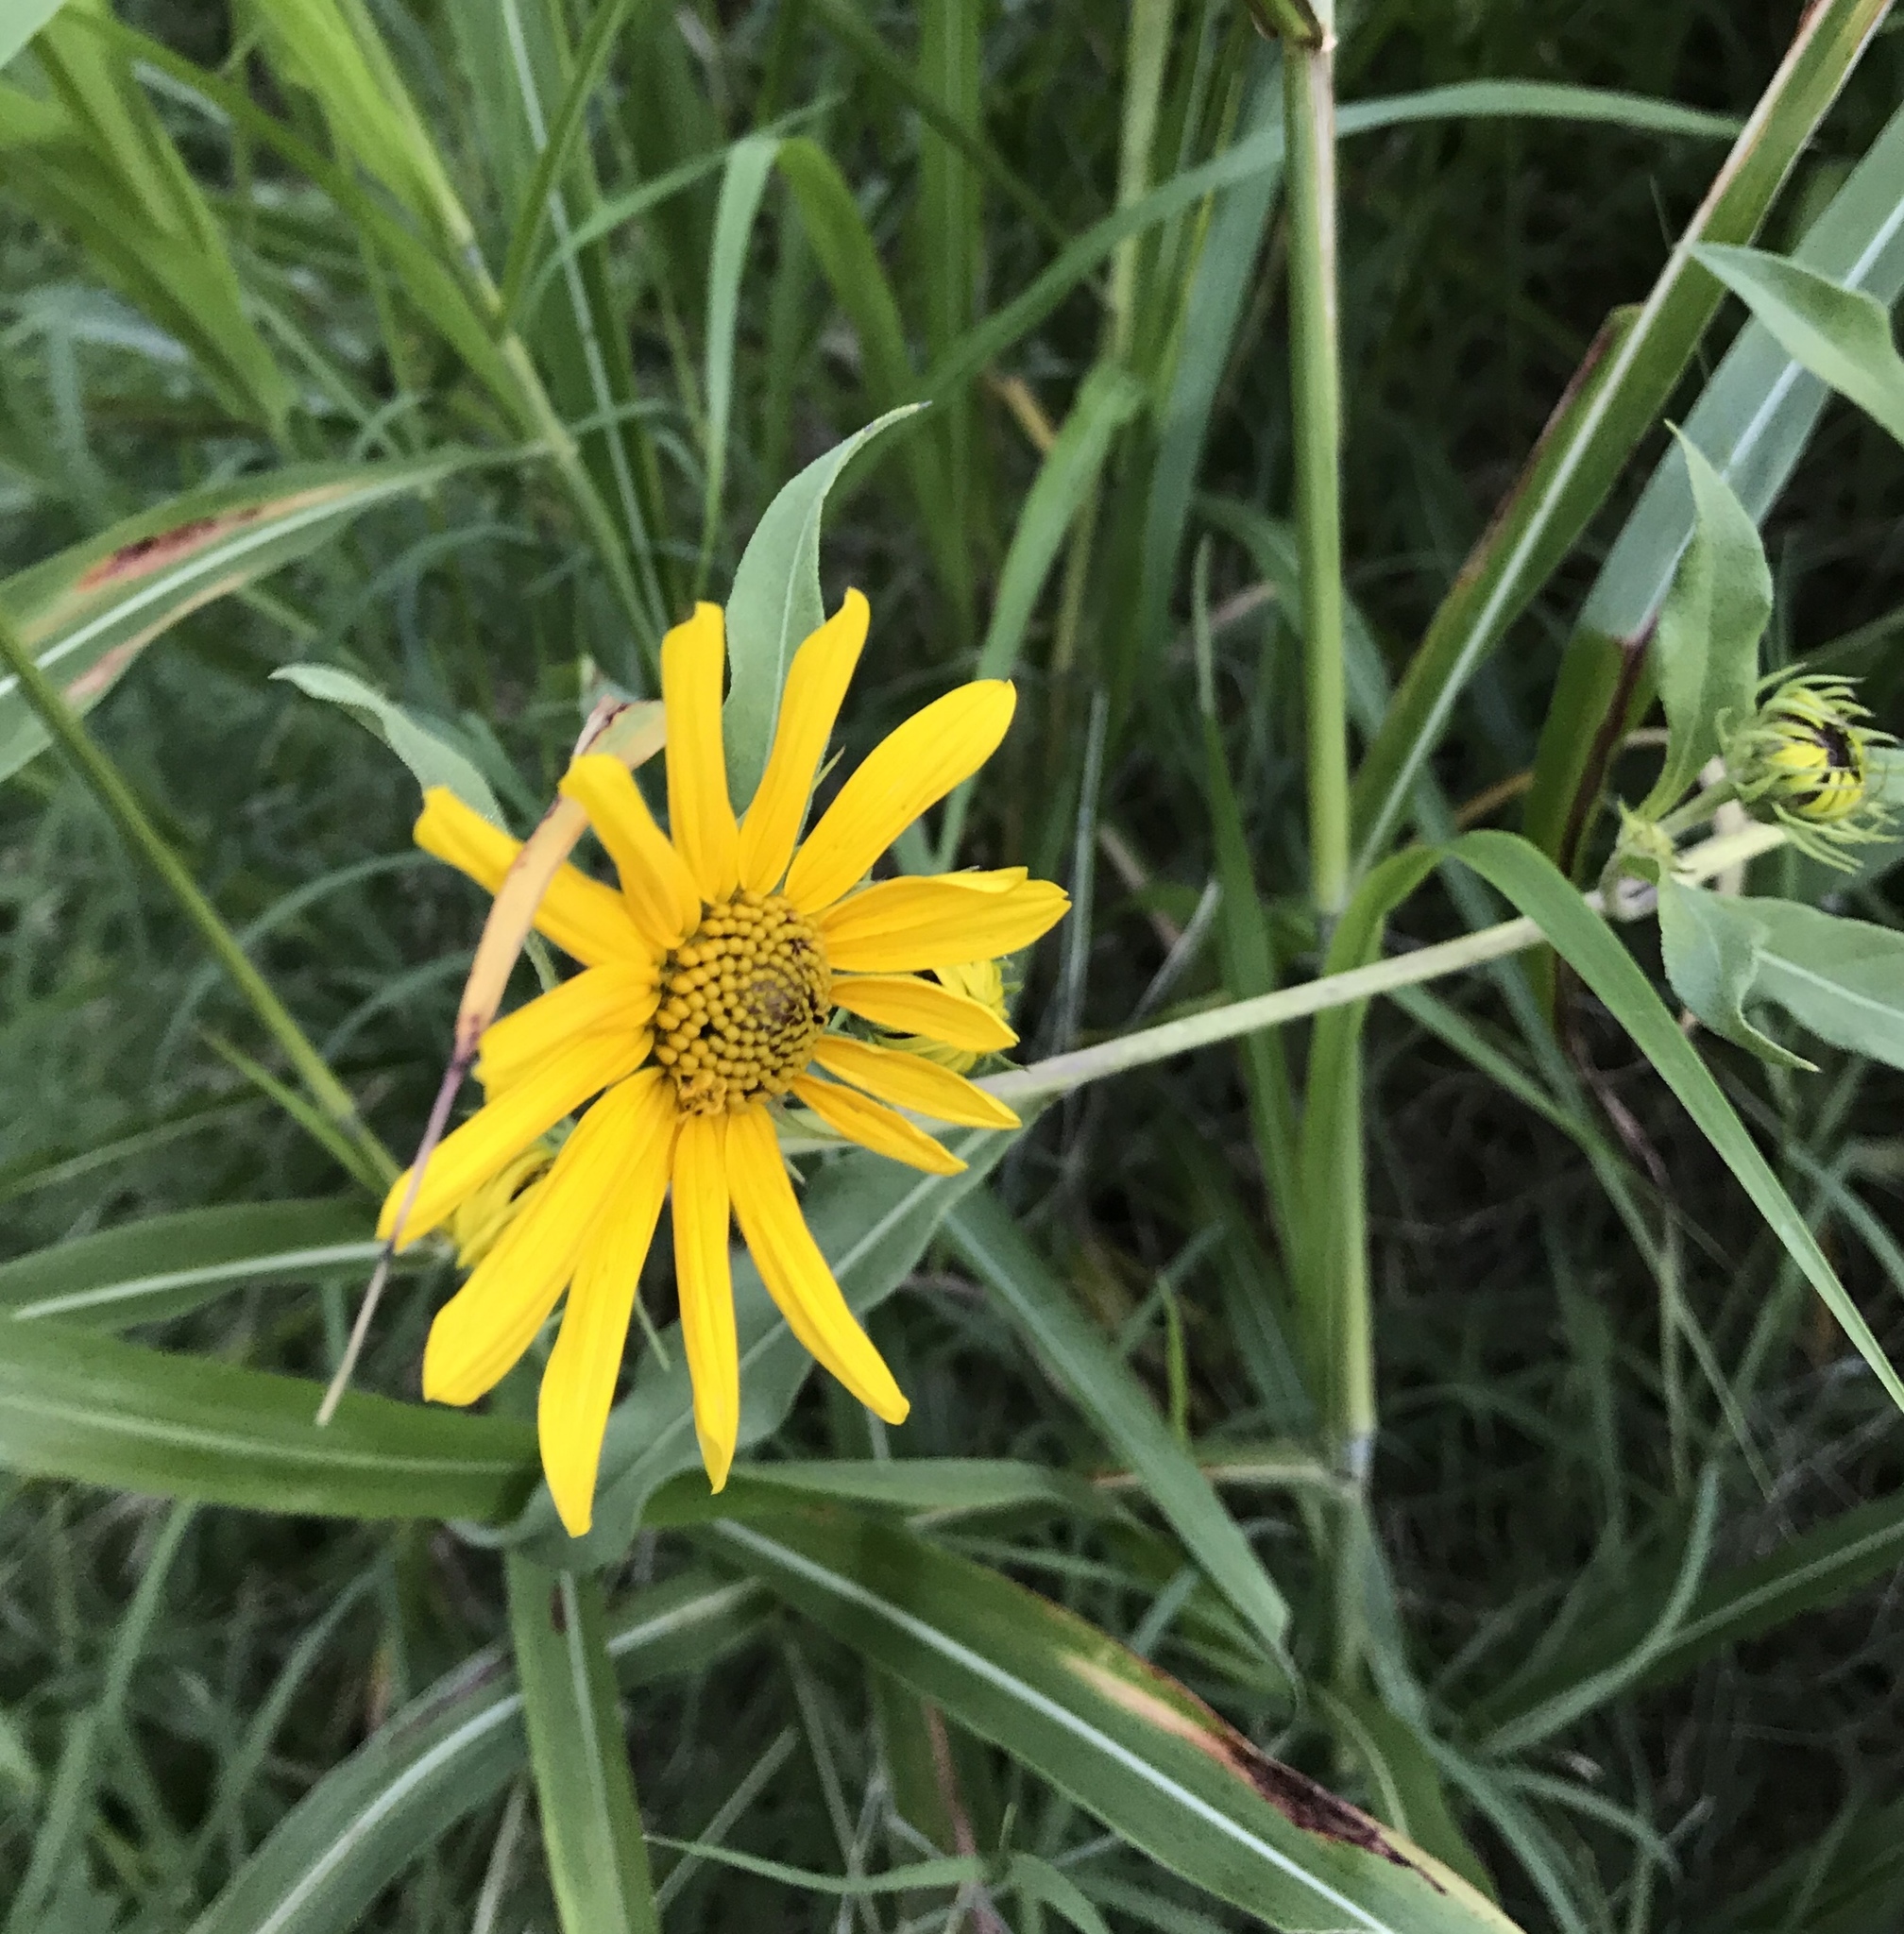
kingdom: Plantae
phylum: Tracheophyta
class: Magnoliopsida
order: Asterales
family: Asteraceae
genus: Helianthus
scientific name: Helianthus maximiliani
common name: Maximilian's sunflower
